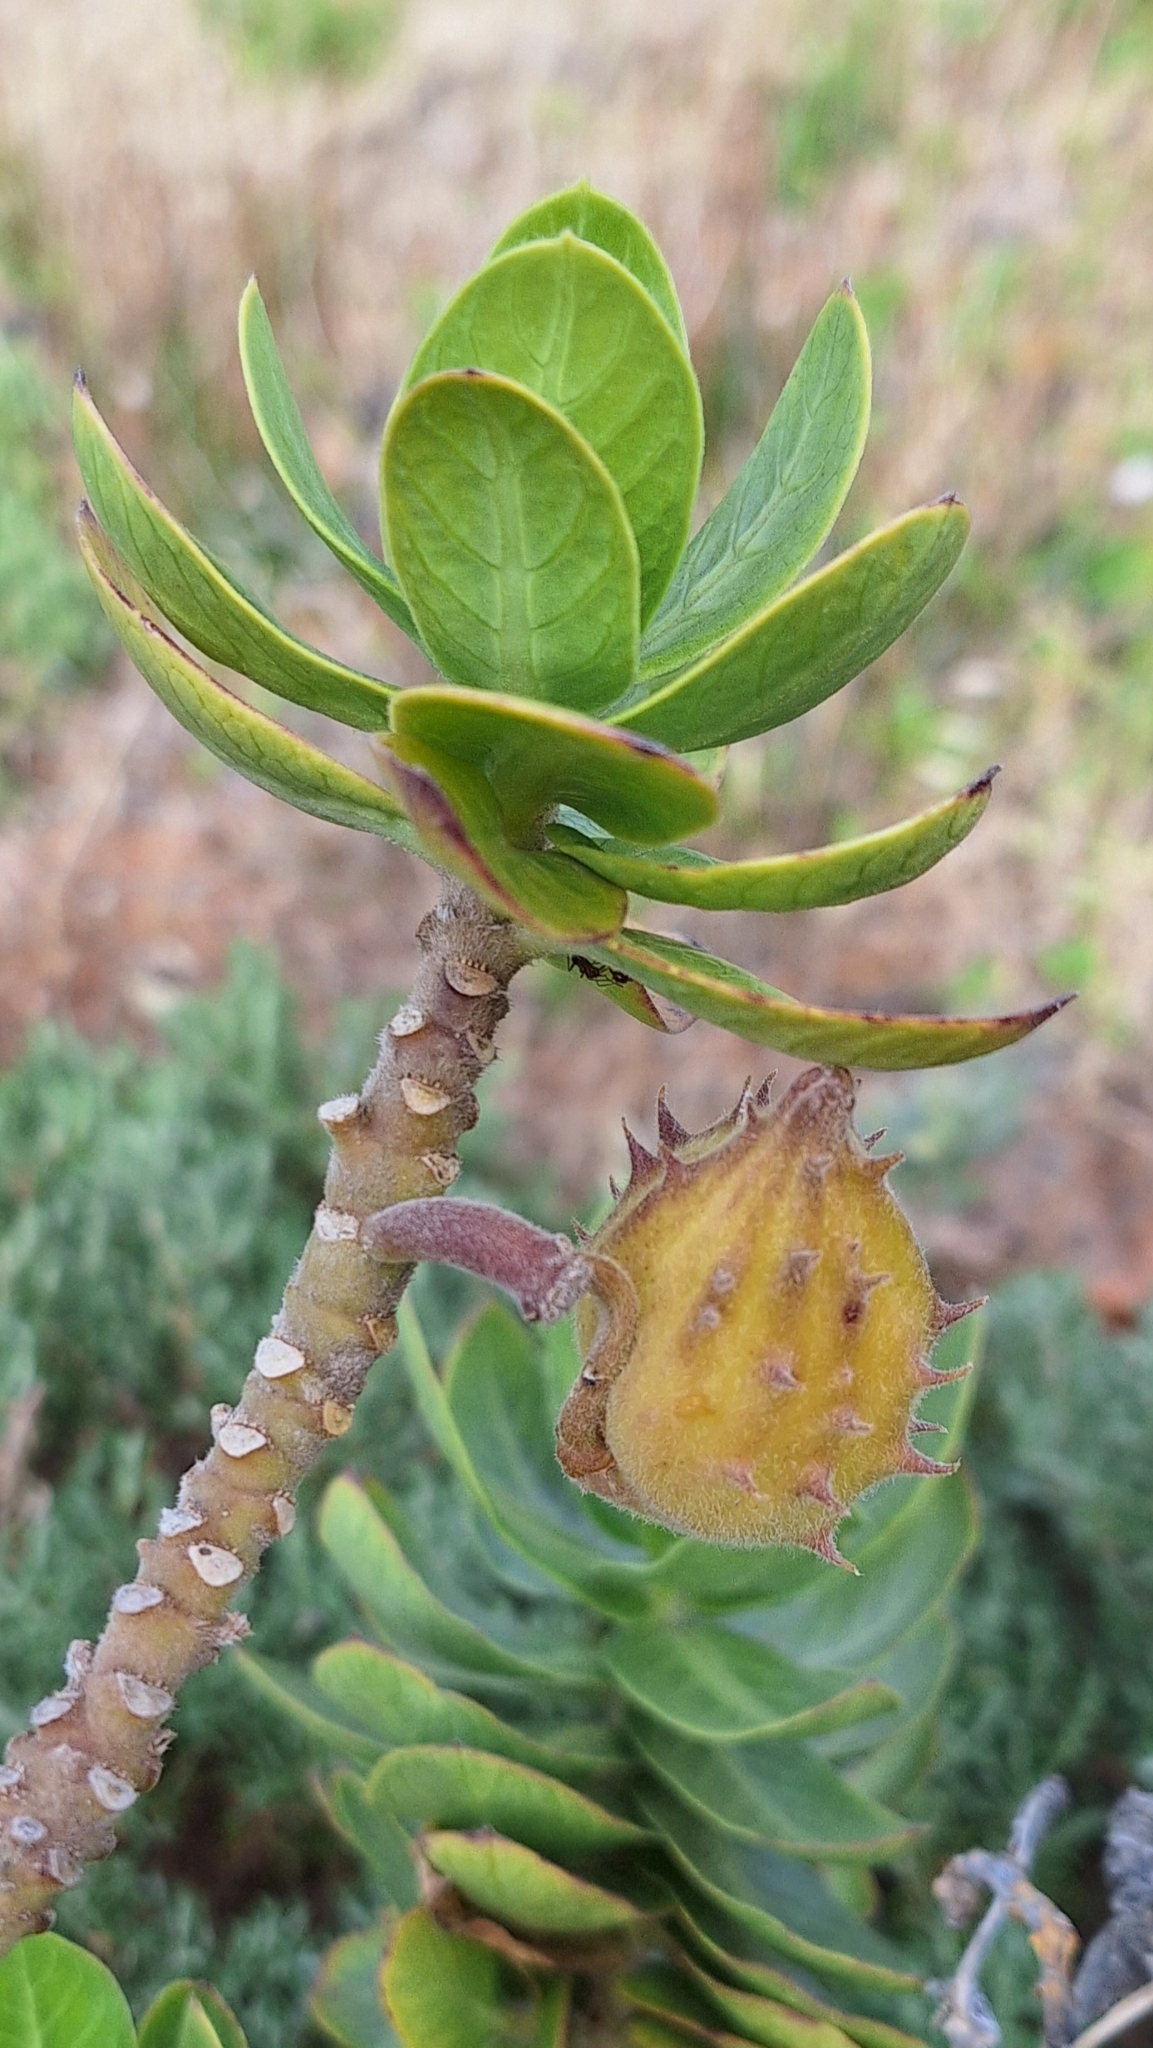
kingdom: Plantae
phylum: Tracheophyta
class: Magnoliopsida
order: Gentianales
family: Apocynaceae
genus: Gomphocarpus
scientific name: Gomphocarpus cancellatus
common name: Wild cotton
